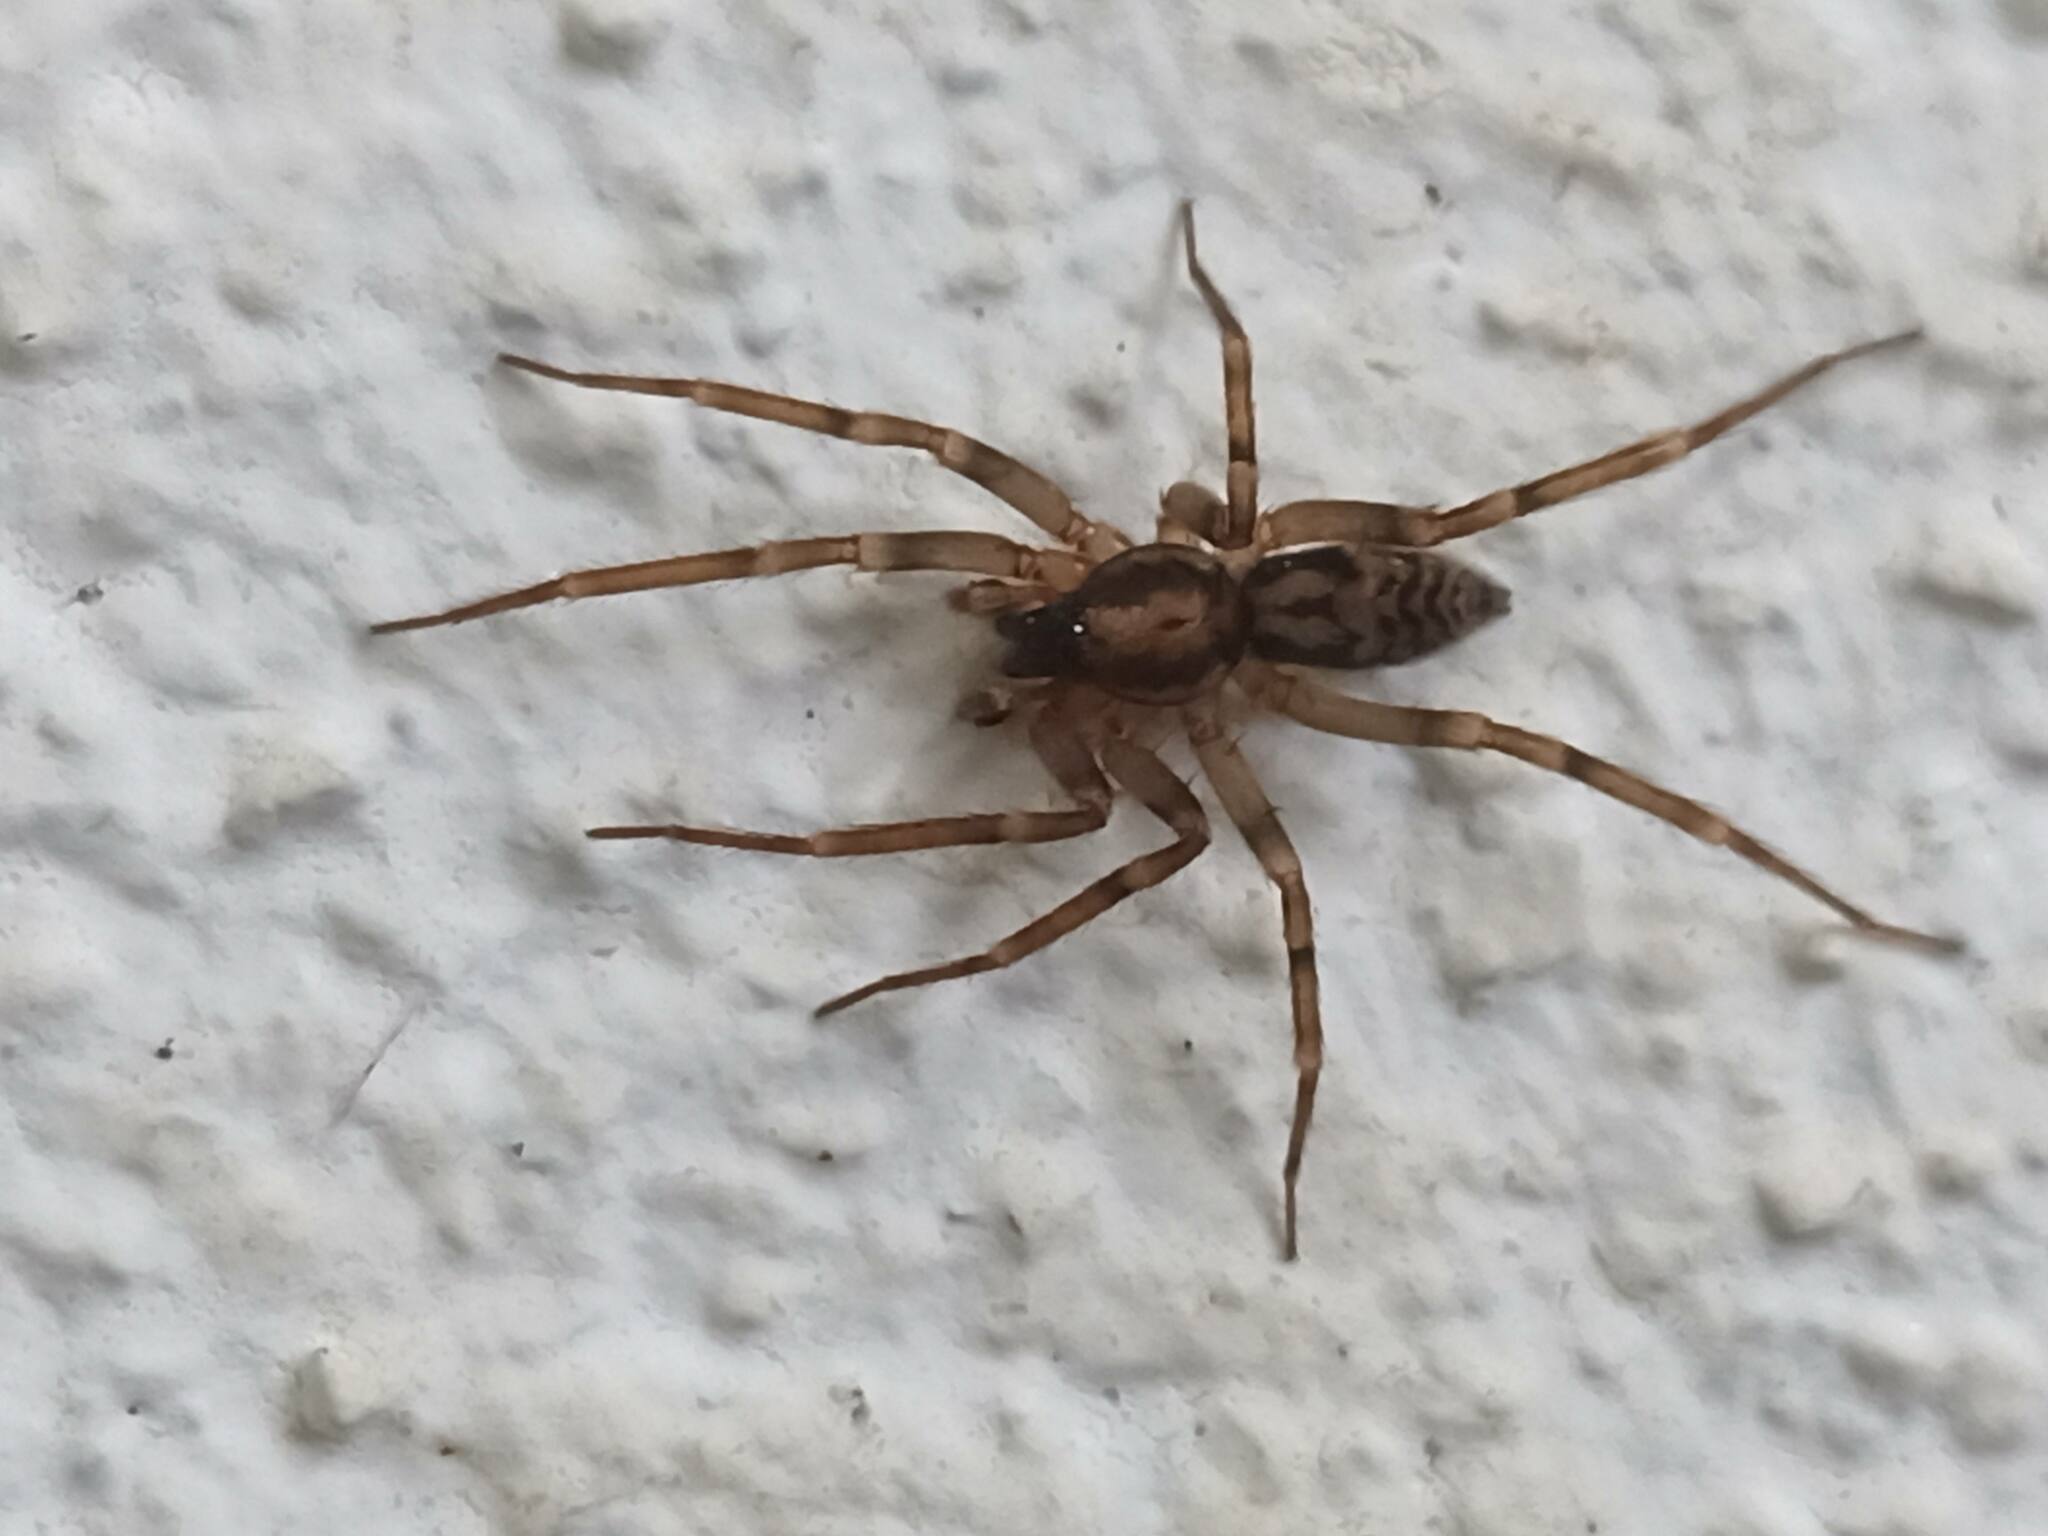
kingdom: Animalia
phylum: Arthropoda
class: Arachnida
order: Araneae
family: Liocranidae
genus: Liocranum
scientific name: Liocranum rupicola
